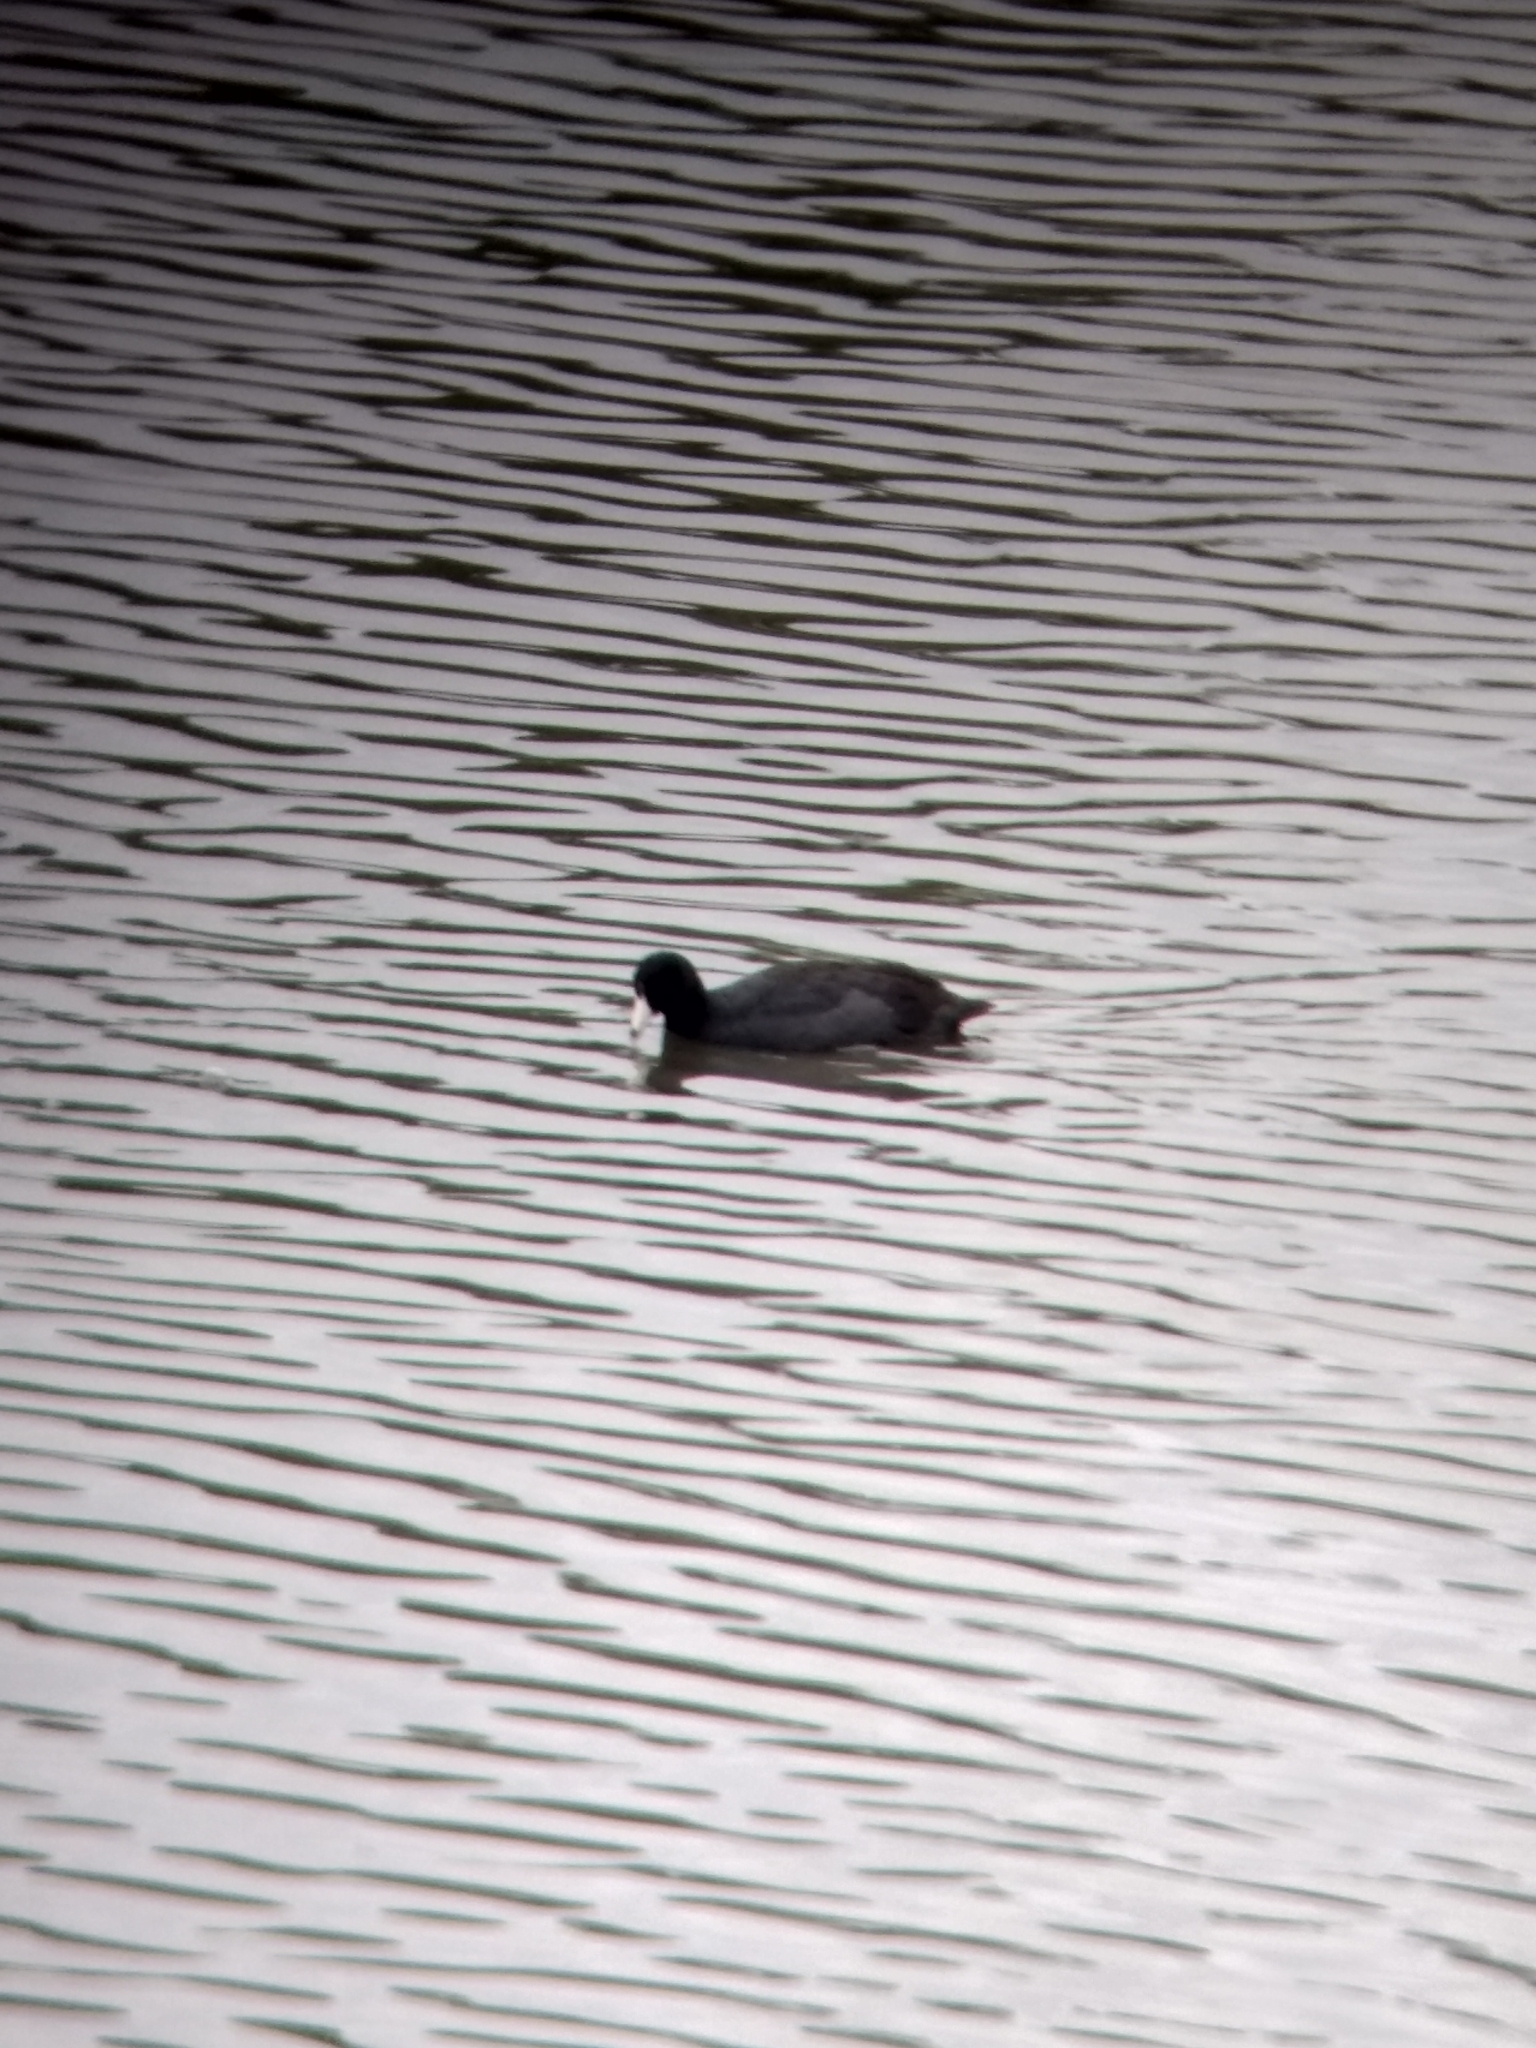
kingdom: Animalia
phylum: Chordata
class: Aves
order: Gruiformes
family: Rallidae
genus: Fulica
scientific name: Fulica americana
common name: American coot
